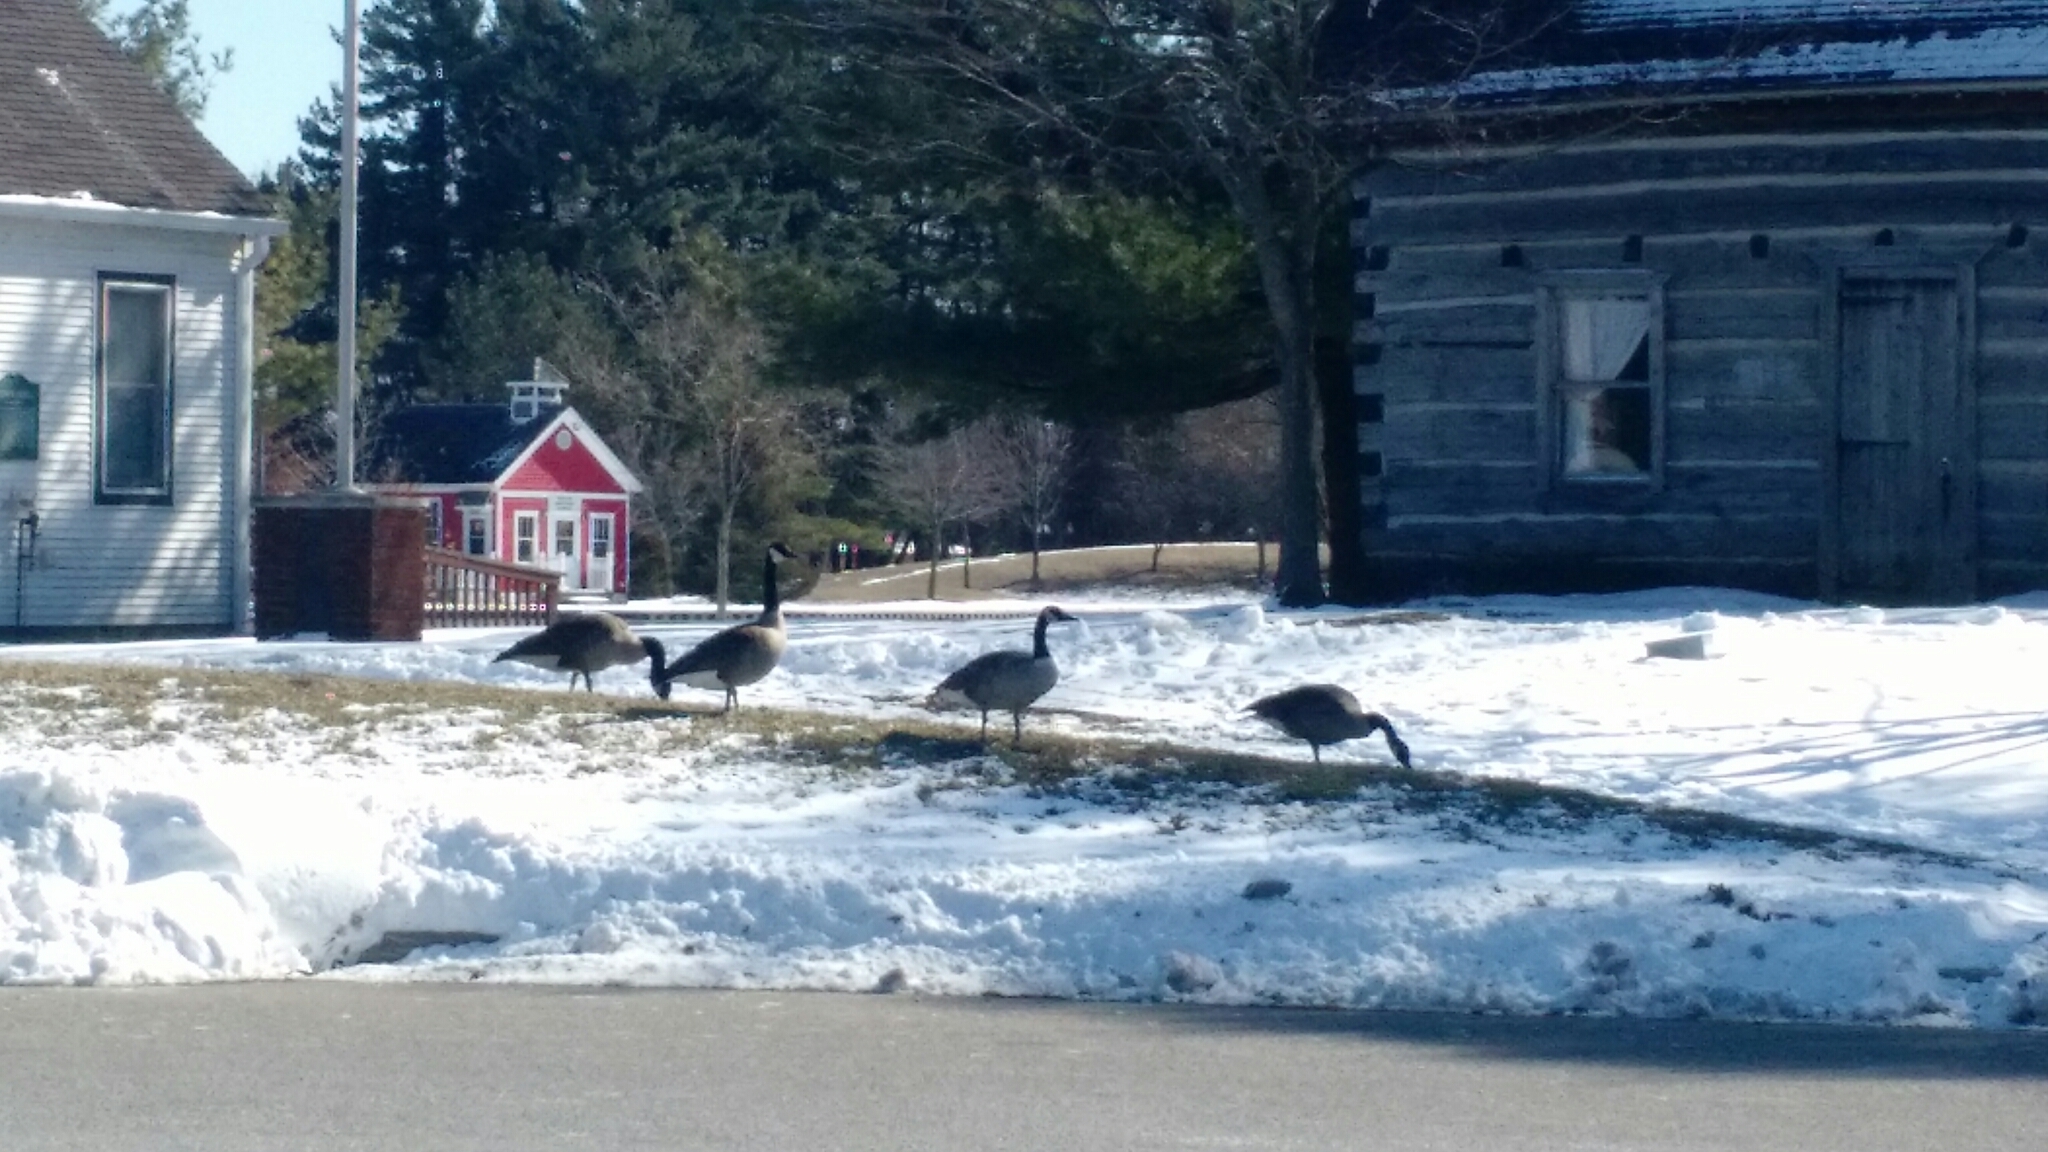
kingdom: Animalia
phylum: Chordata
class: Aves
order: Anseriformes
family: Anatidae
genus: Branta
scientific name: Branta canadensis
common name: Canada goose
